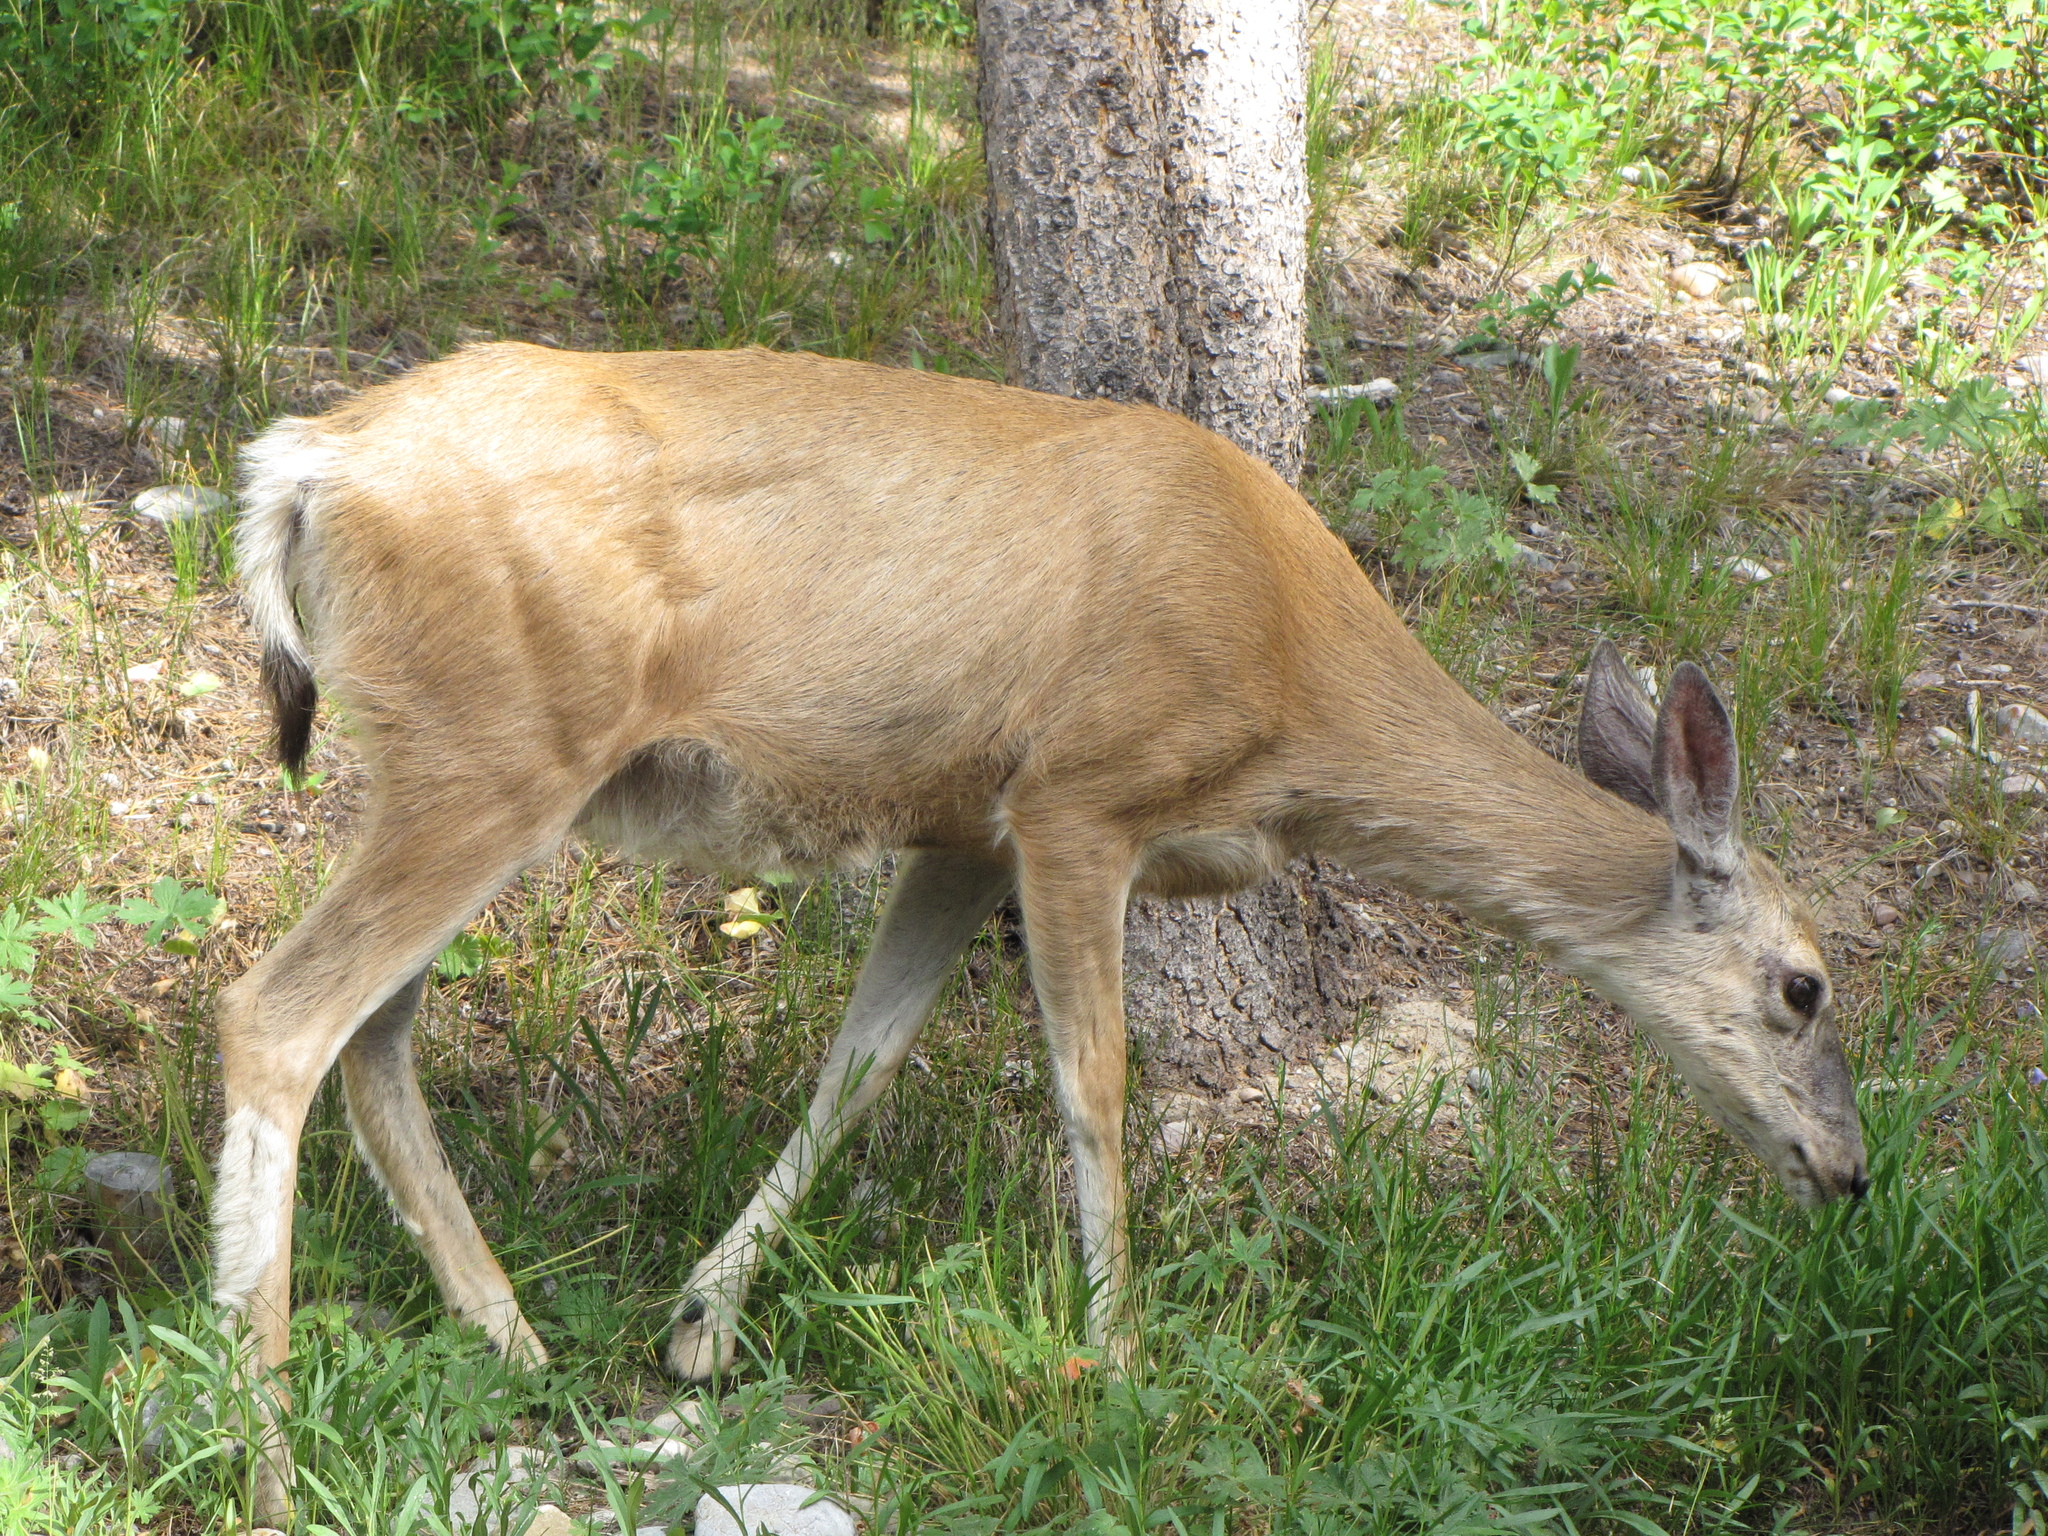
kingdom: Animalia
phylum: Chordata
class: Mammalia
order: Artiodactyla
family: Cervidae
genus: Odocoileus
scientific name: Odocoileus hemionus
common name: Mule deer
